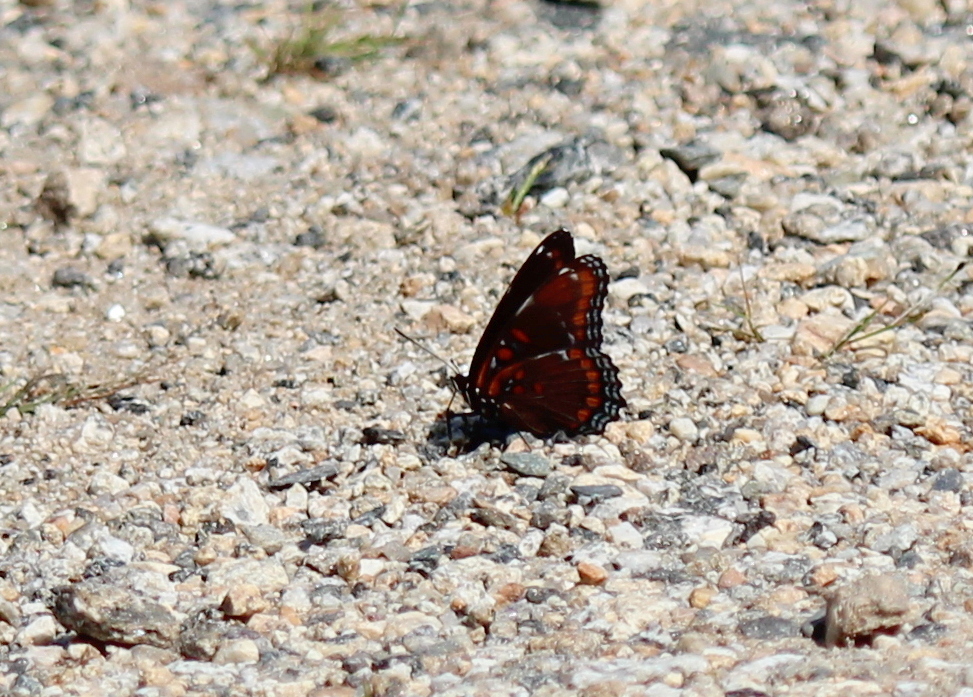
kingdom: Animalia
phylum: Arthropoda
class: Insecta
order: Lepidoptera
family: Nymphalidae
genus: Limenitis
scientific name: Limenitis
